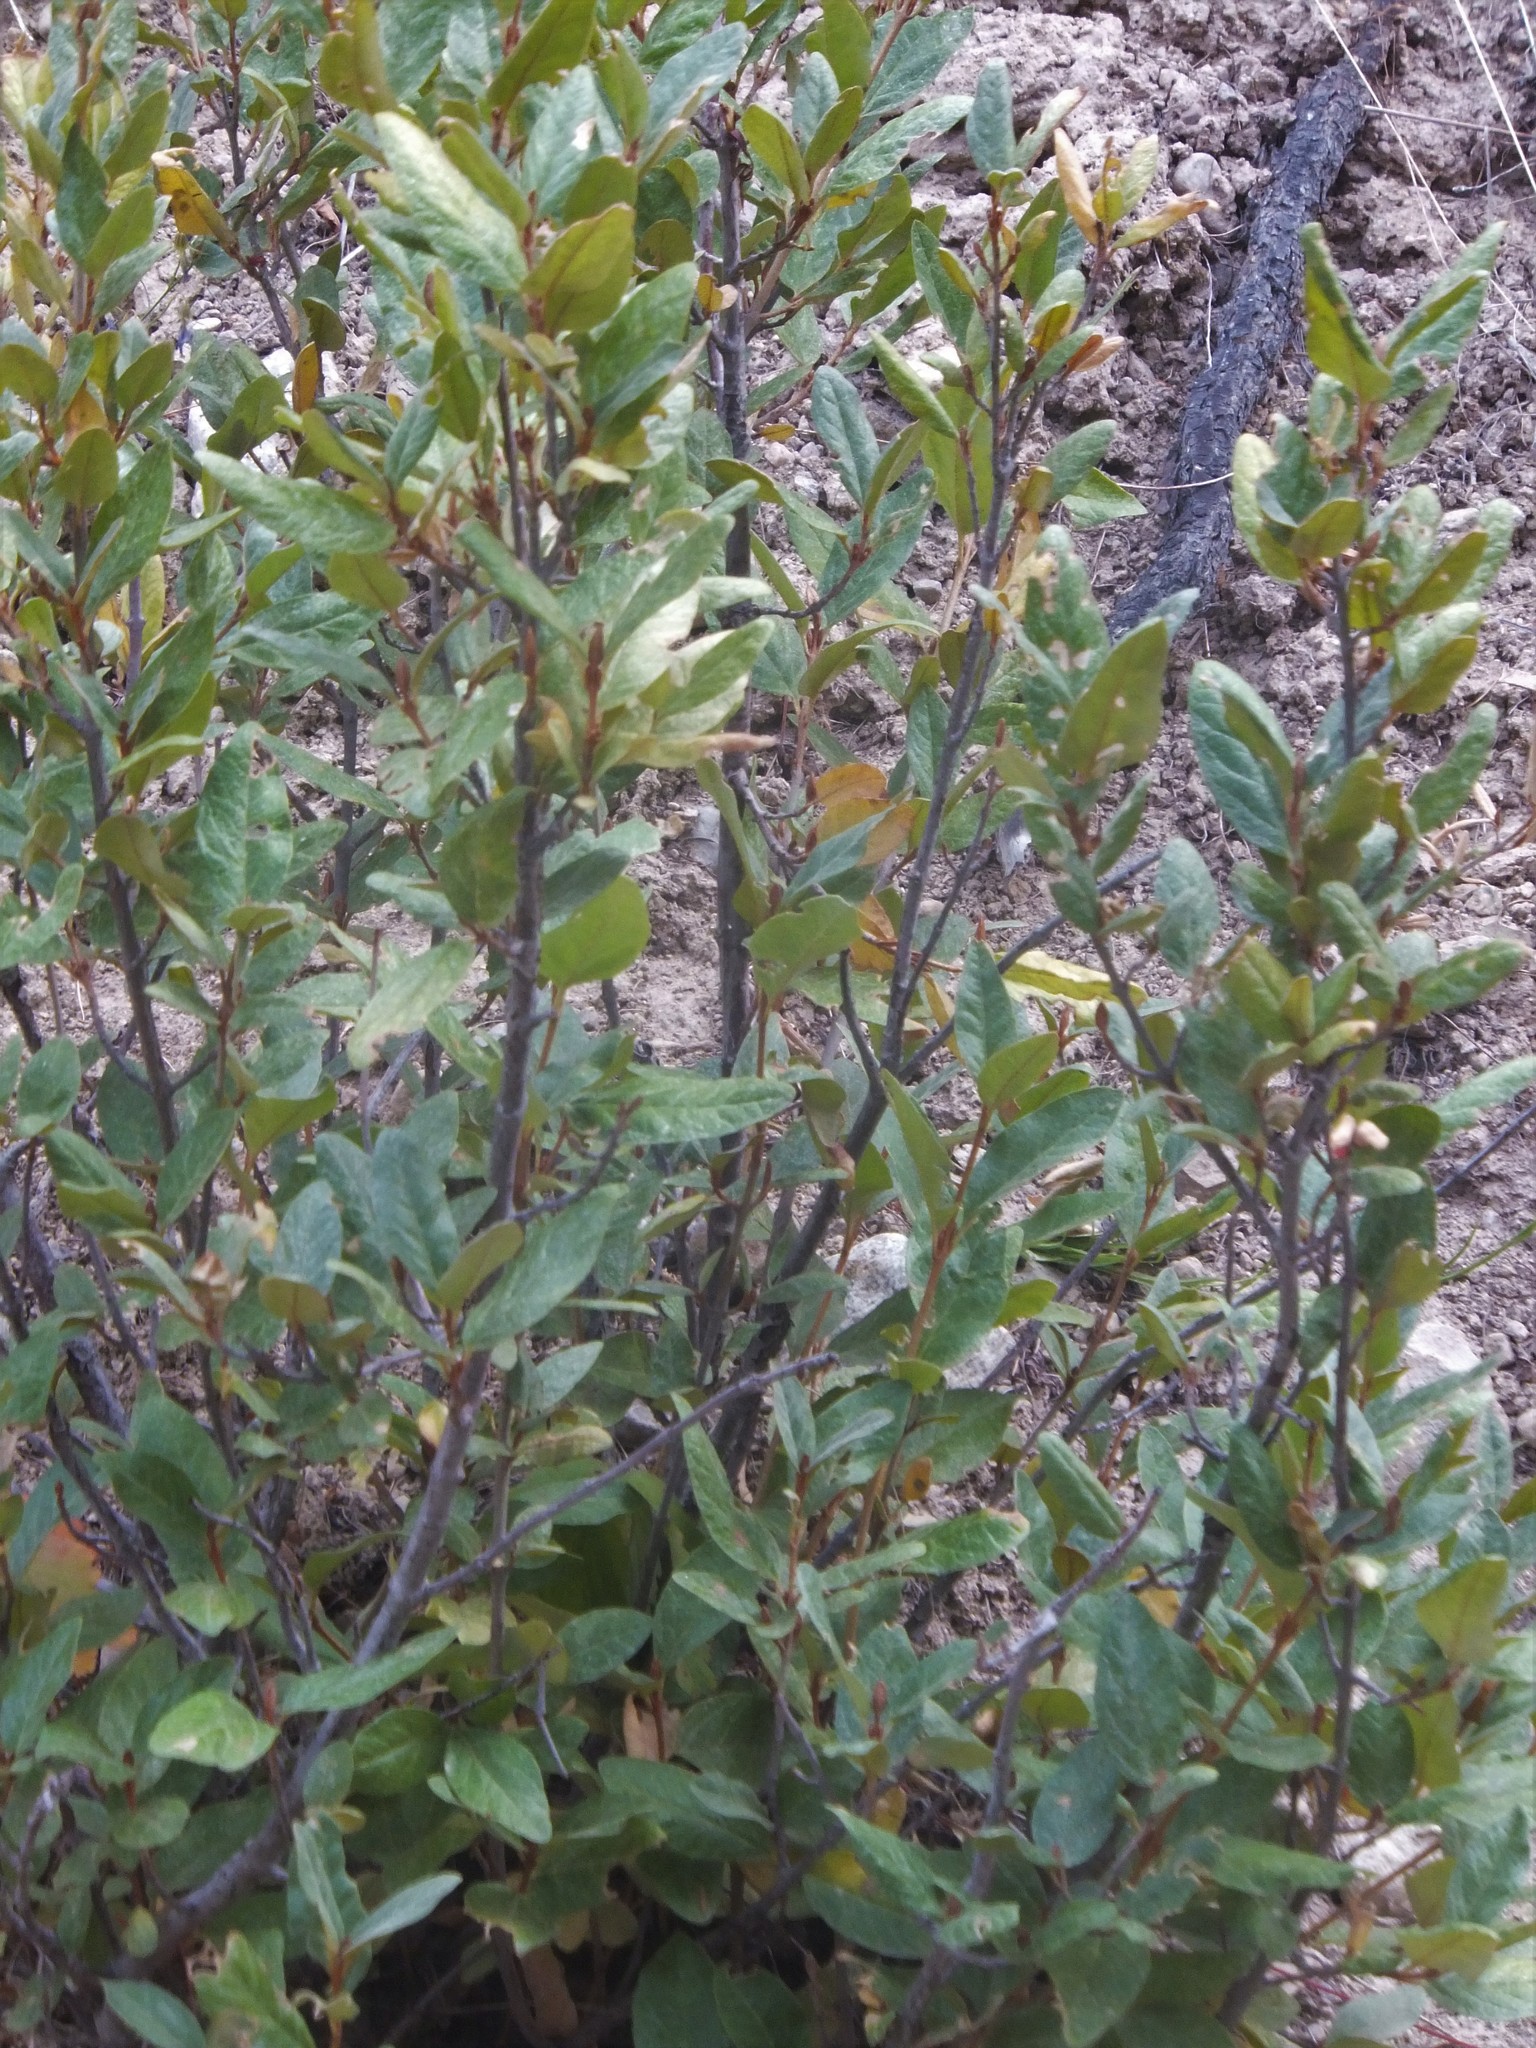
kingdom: Plantae
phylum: Tracheophyta
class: Magnoliopsida
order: Rosales
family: Elaeagnaceae
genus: Shepherdia
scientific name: Shepherdia canadensis
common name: Soapberry
